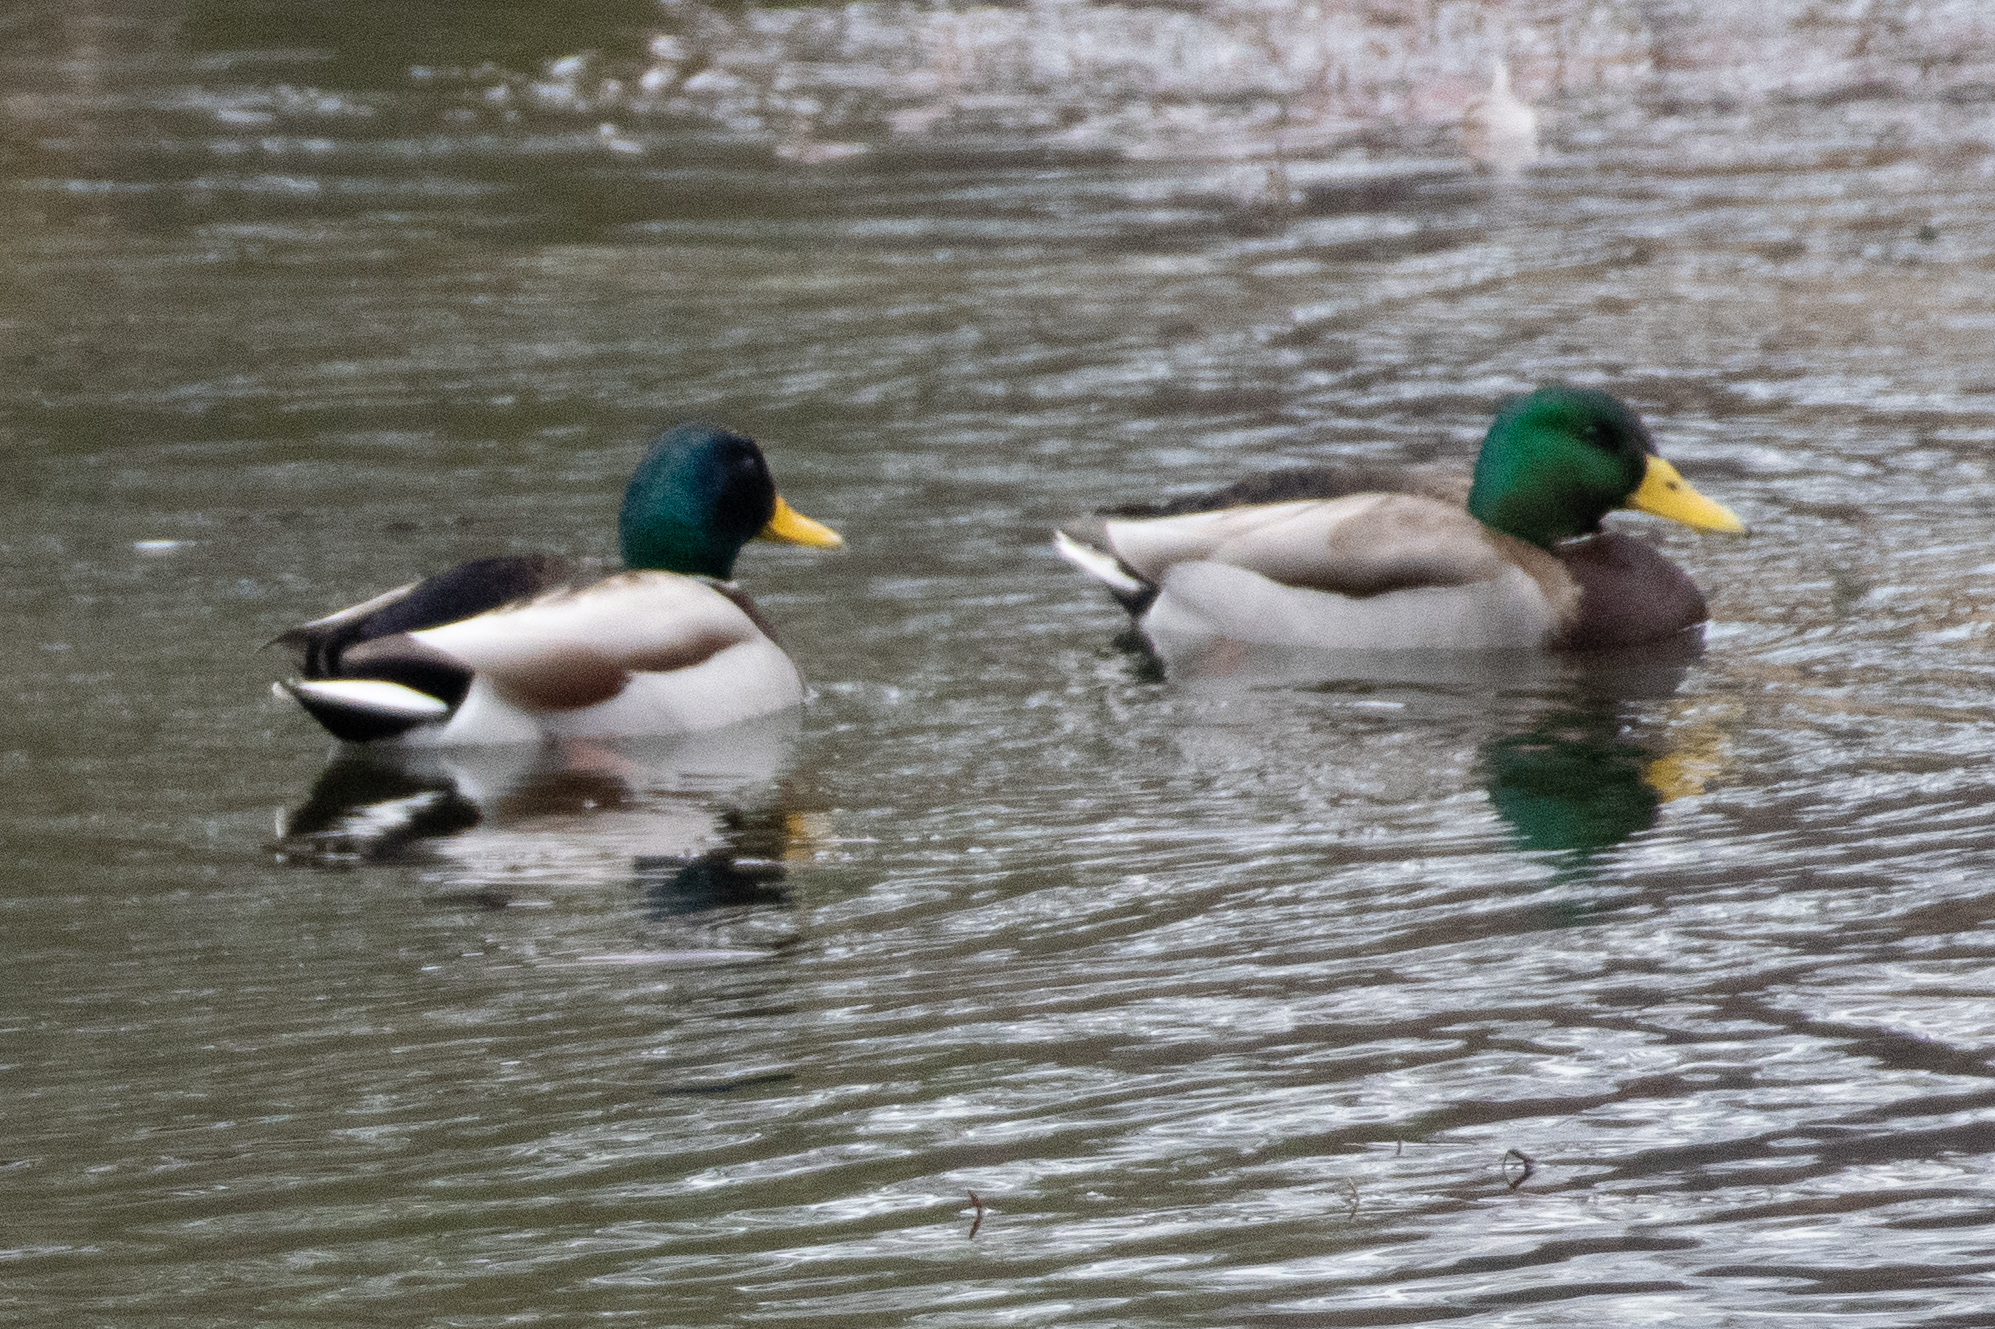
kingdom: Animalia
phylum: Chordata
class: Aves
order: Anseriformes
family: Anatidae
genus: Anas
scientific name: Anas platyrhynchos
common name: Mallard
